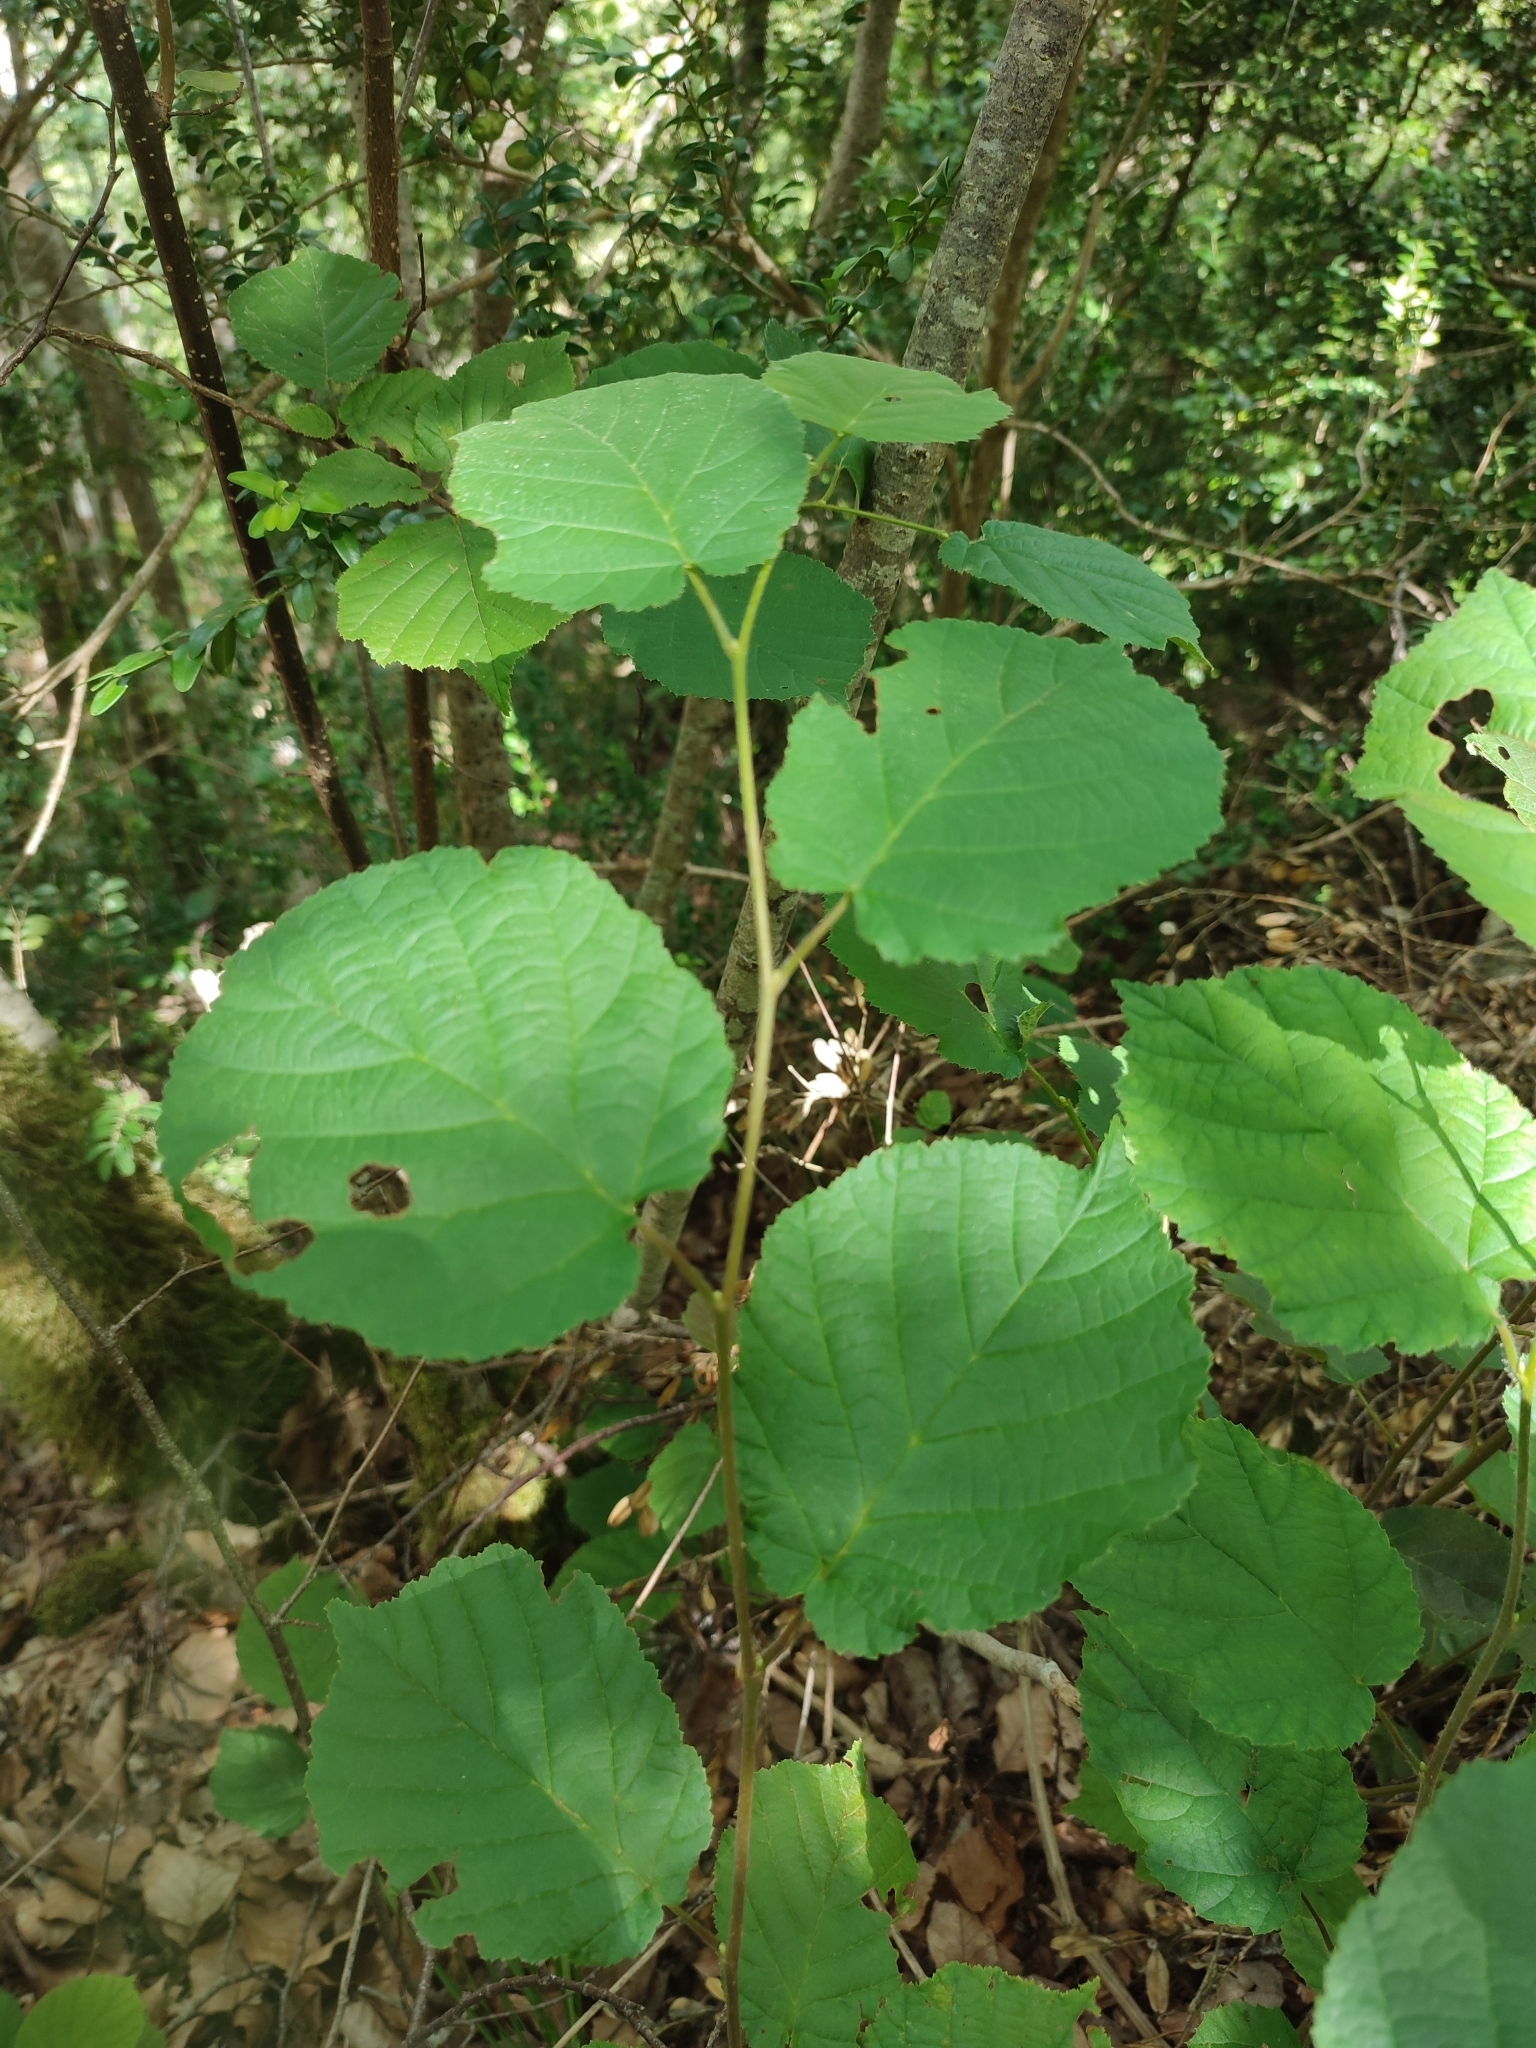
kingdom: Plantae
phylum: Tracheophyta
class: Magnoliopsida
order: Fagales
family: Betulaceae
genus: Corylus
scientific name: Corylus avellana
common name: European hazel
